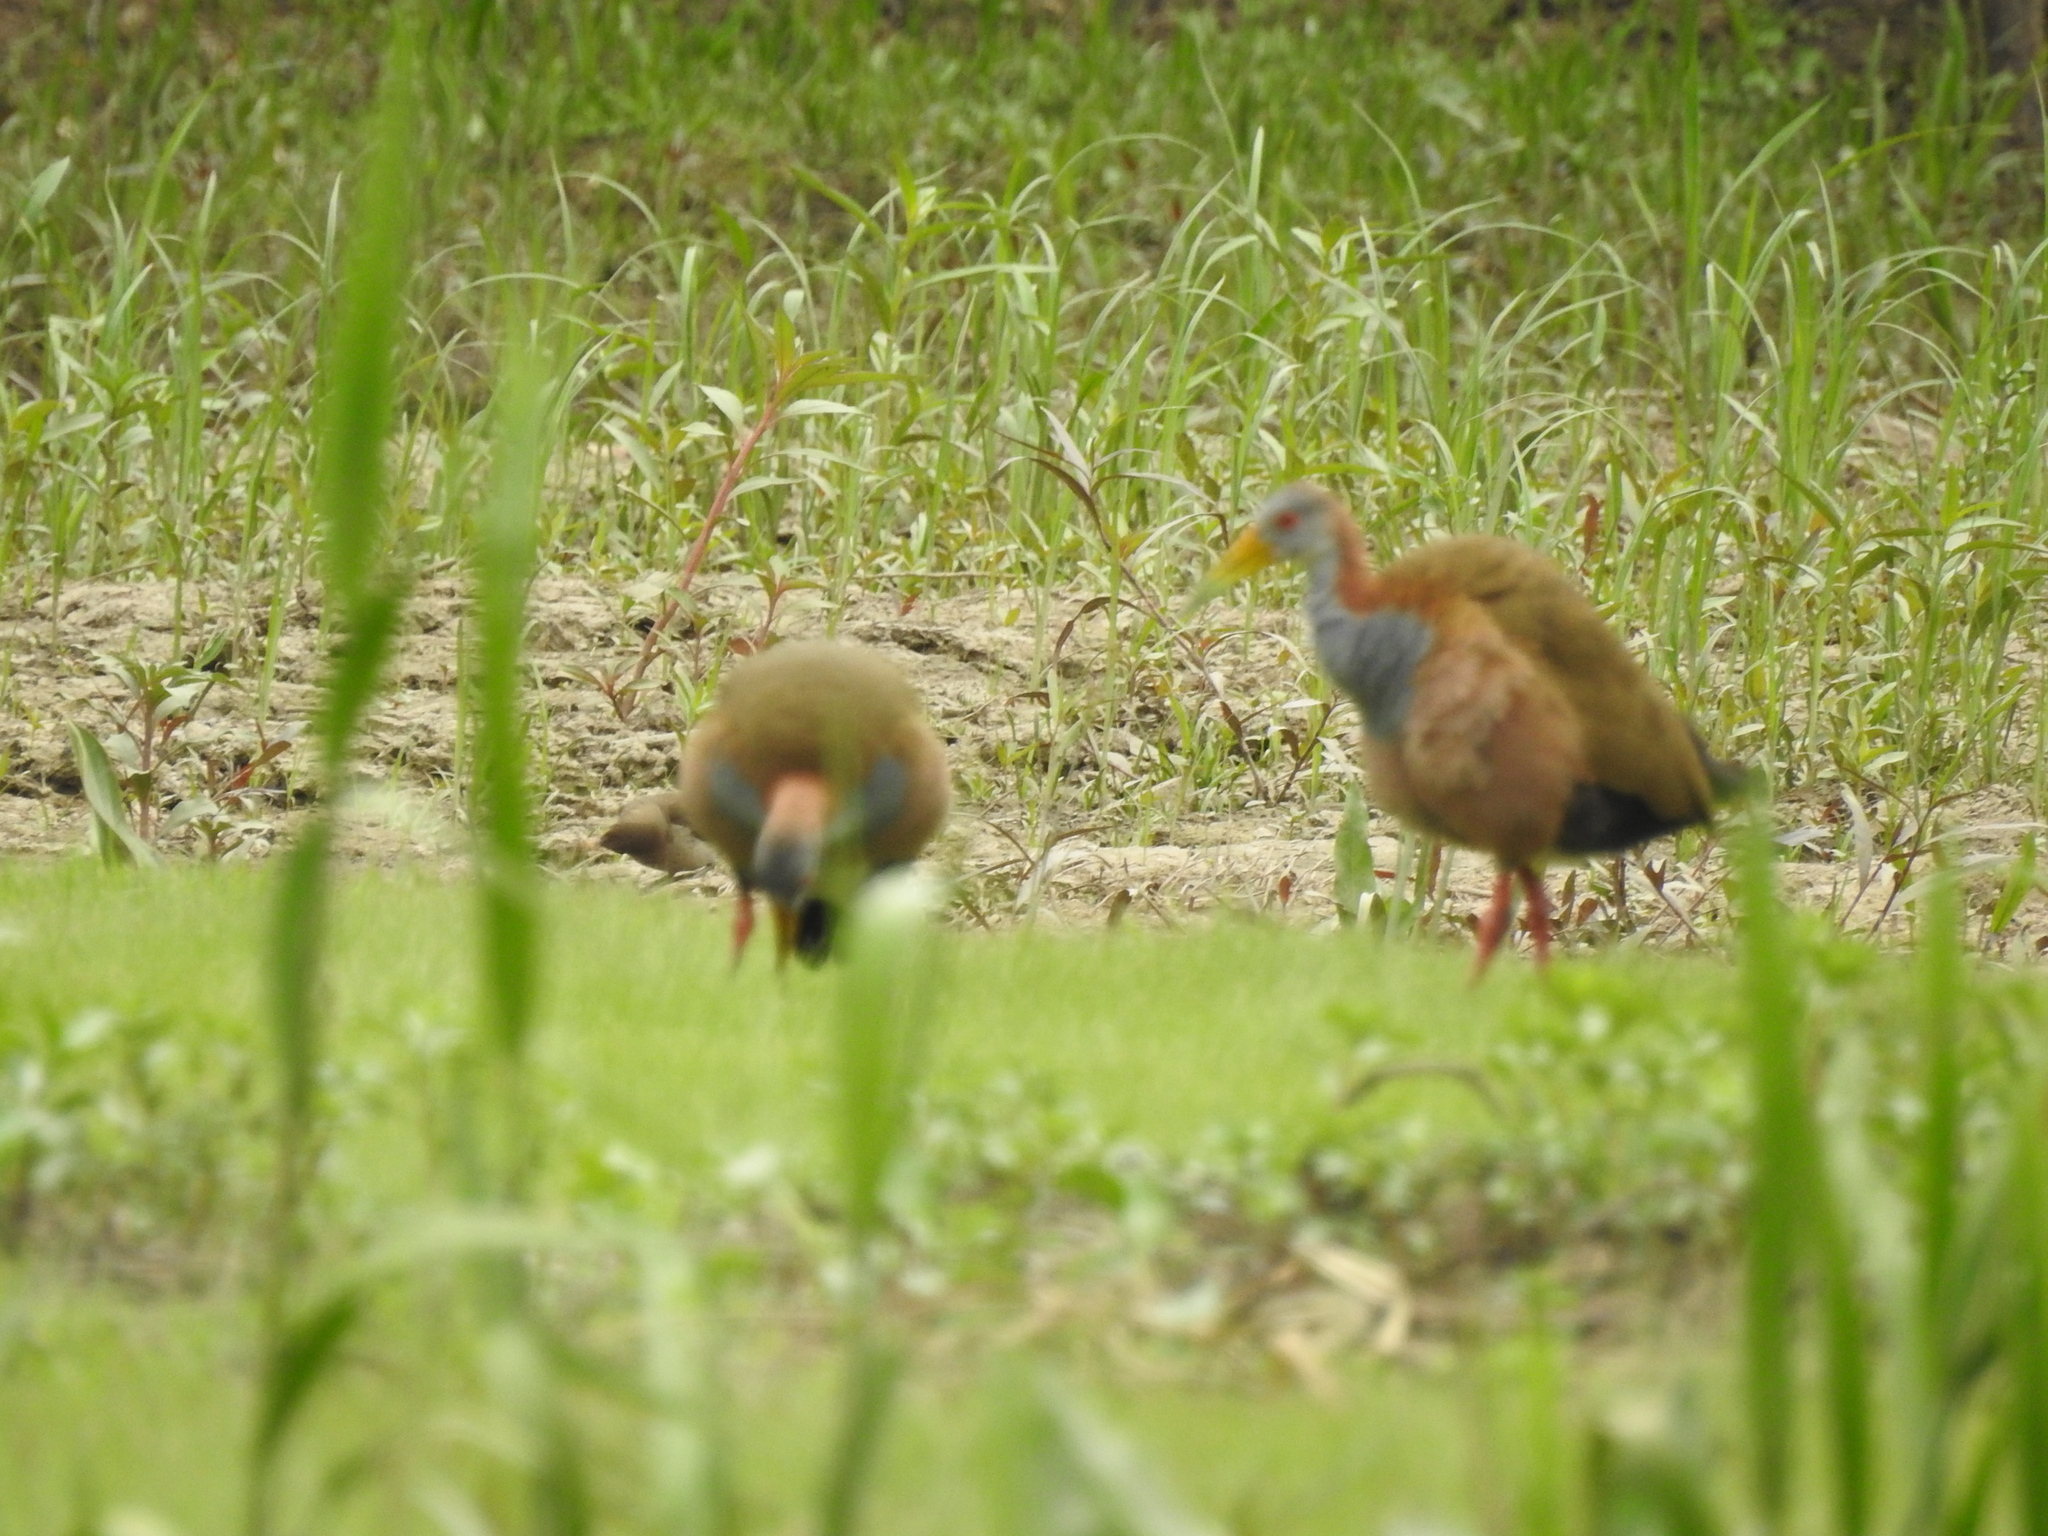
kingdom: Animalia
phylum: Chordata
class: Aves
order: Gruiformes
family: Rallidae
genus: Aramides
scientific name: Aramides ypecaha
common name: Giant wood rail
